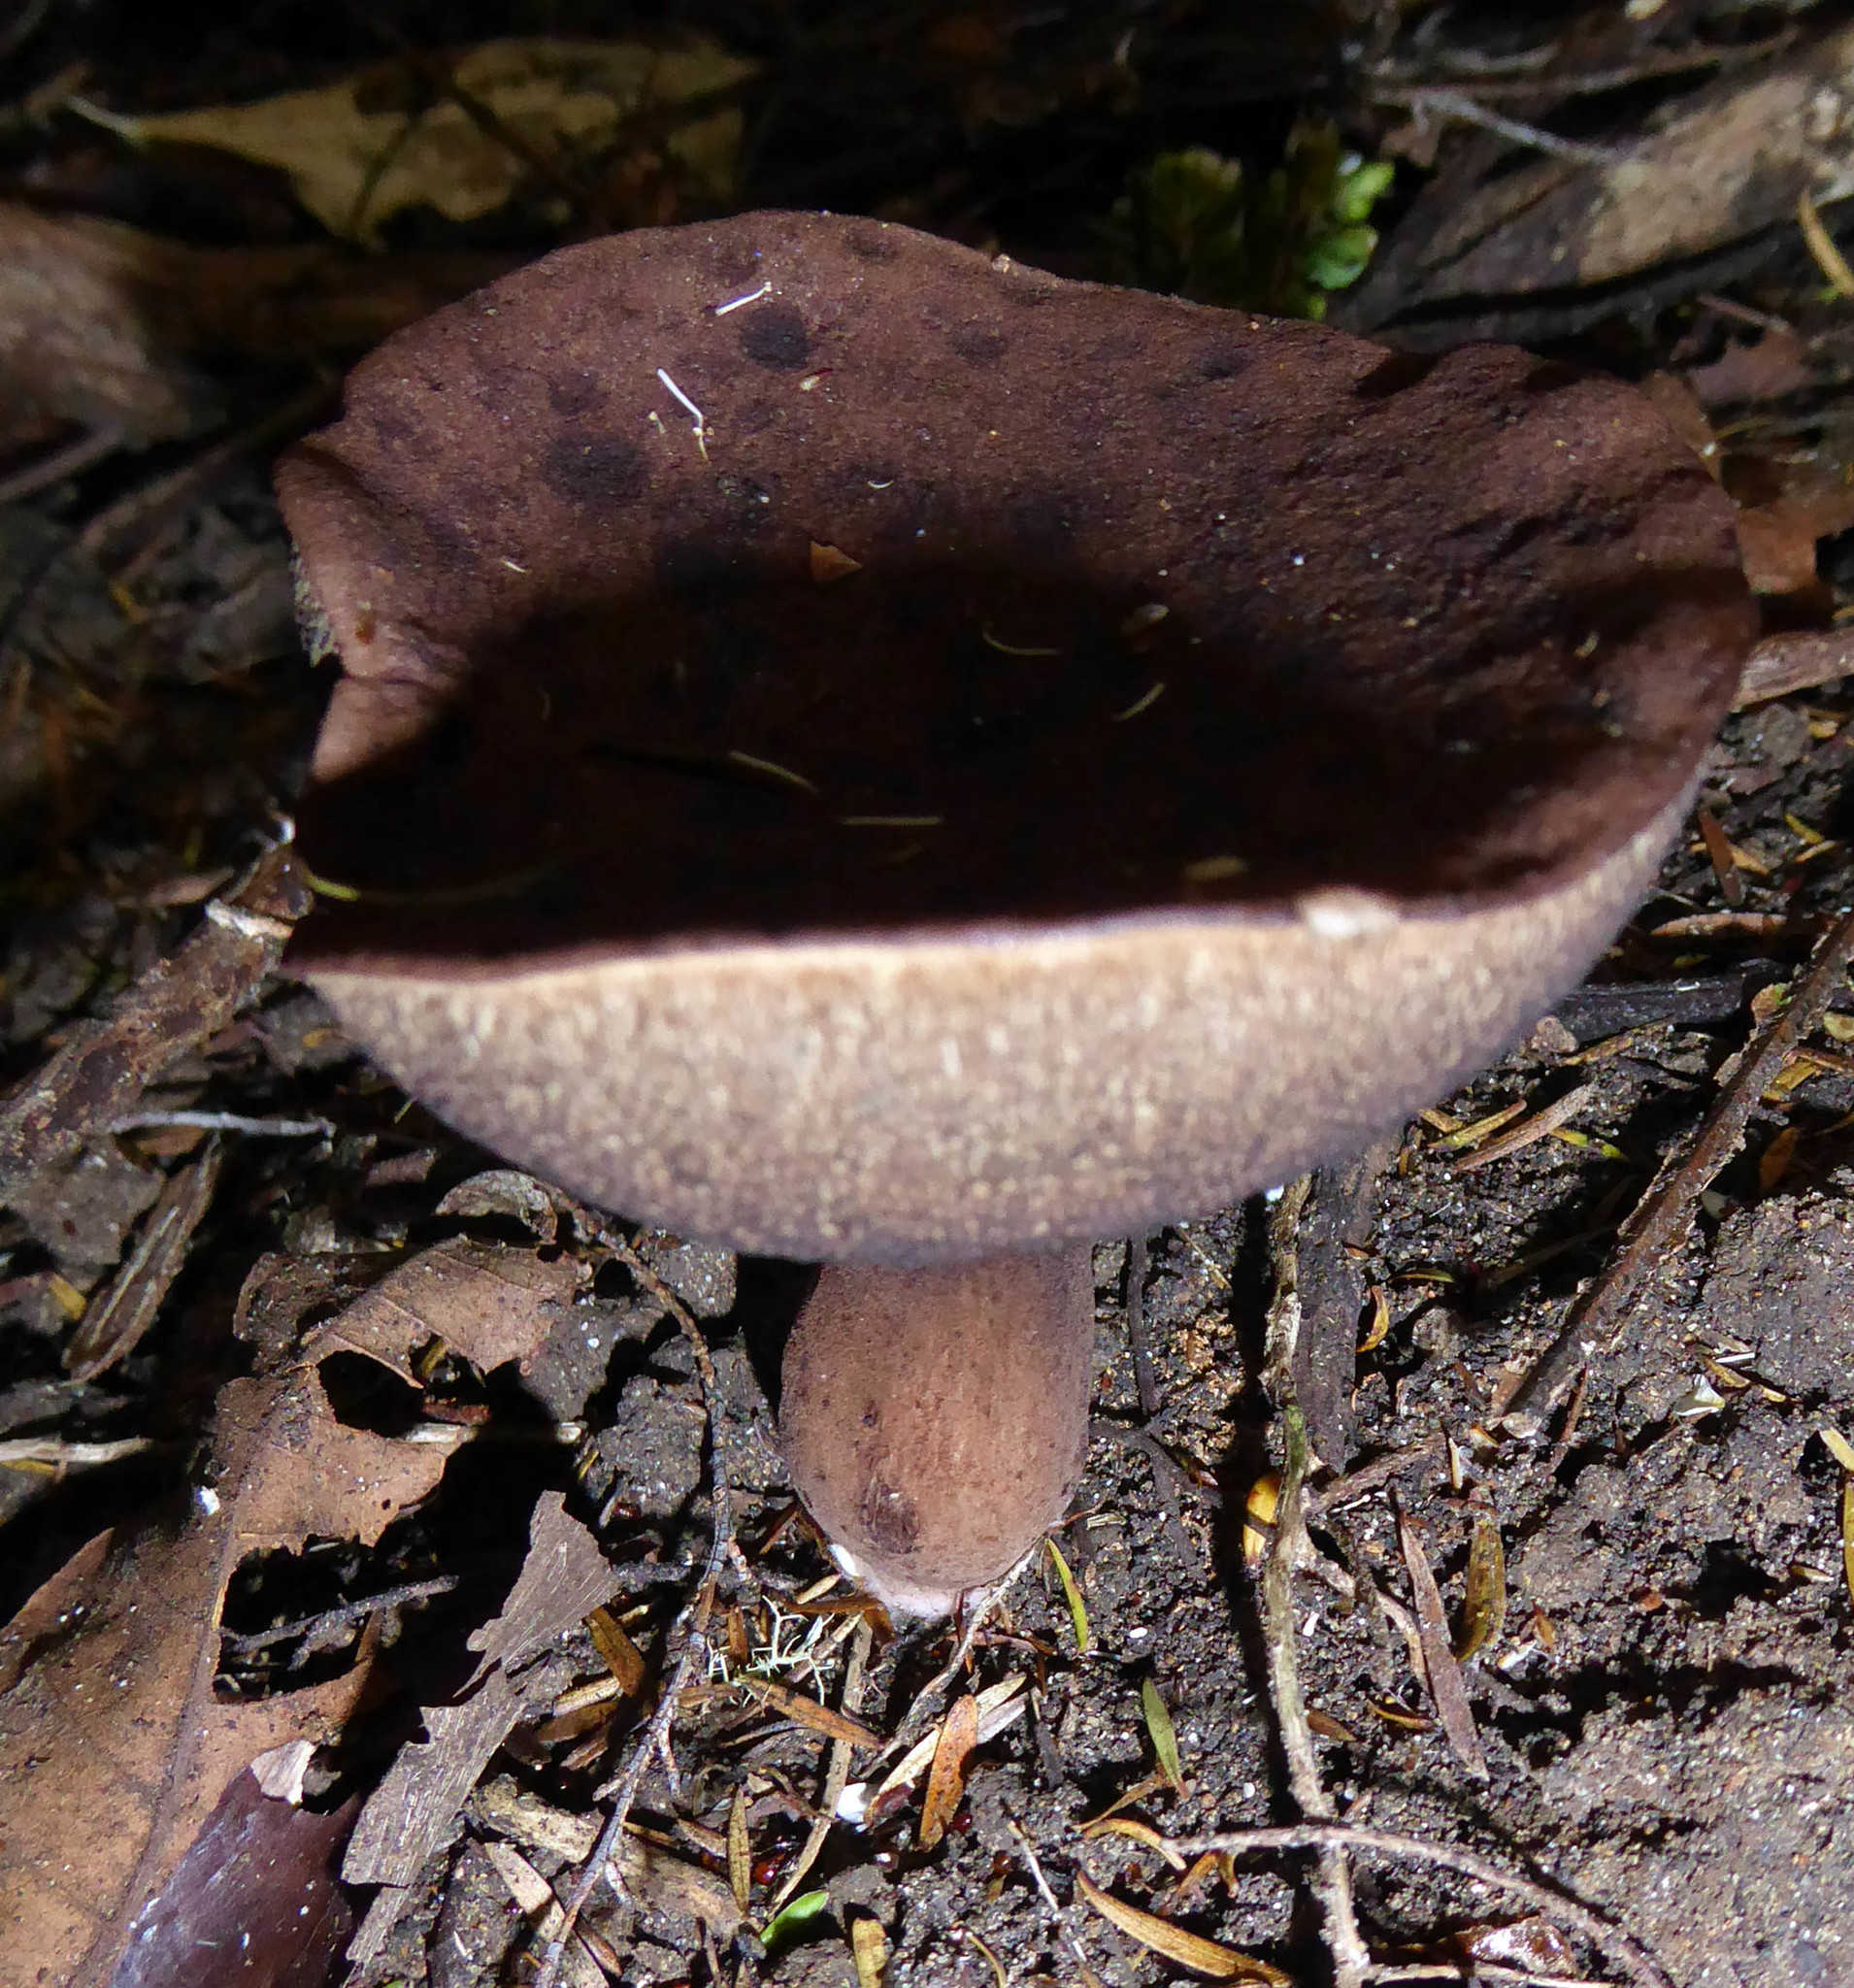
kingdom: Fungi
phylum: Basidiomycota
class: Agaricomycetes
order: Boletales
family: Boletaceae
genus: Porphyrellus
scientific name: Porphyrellus brunneus
